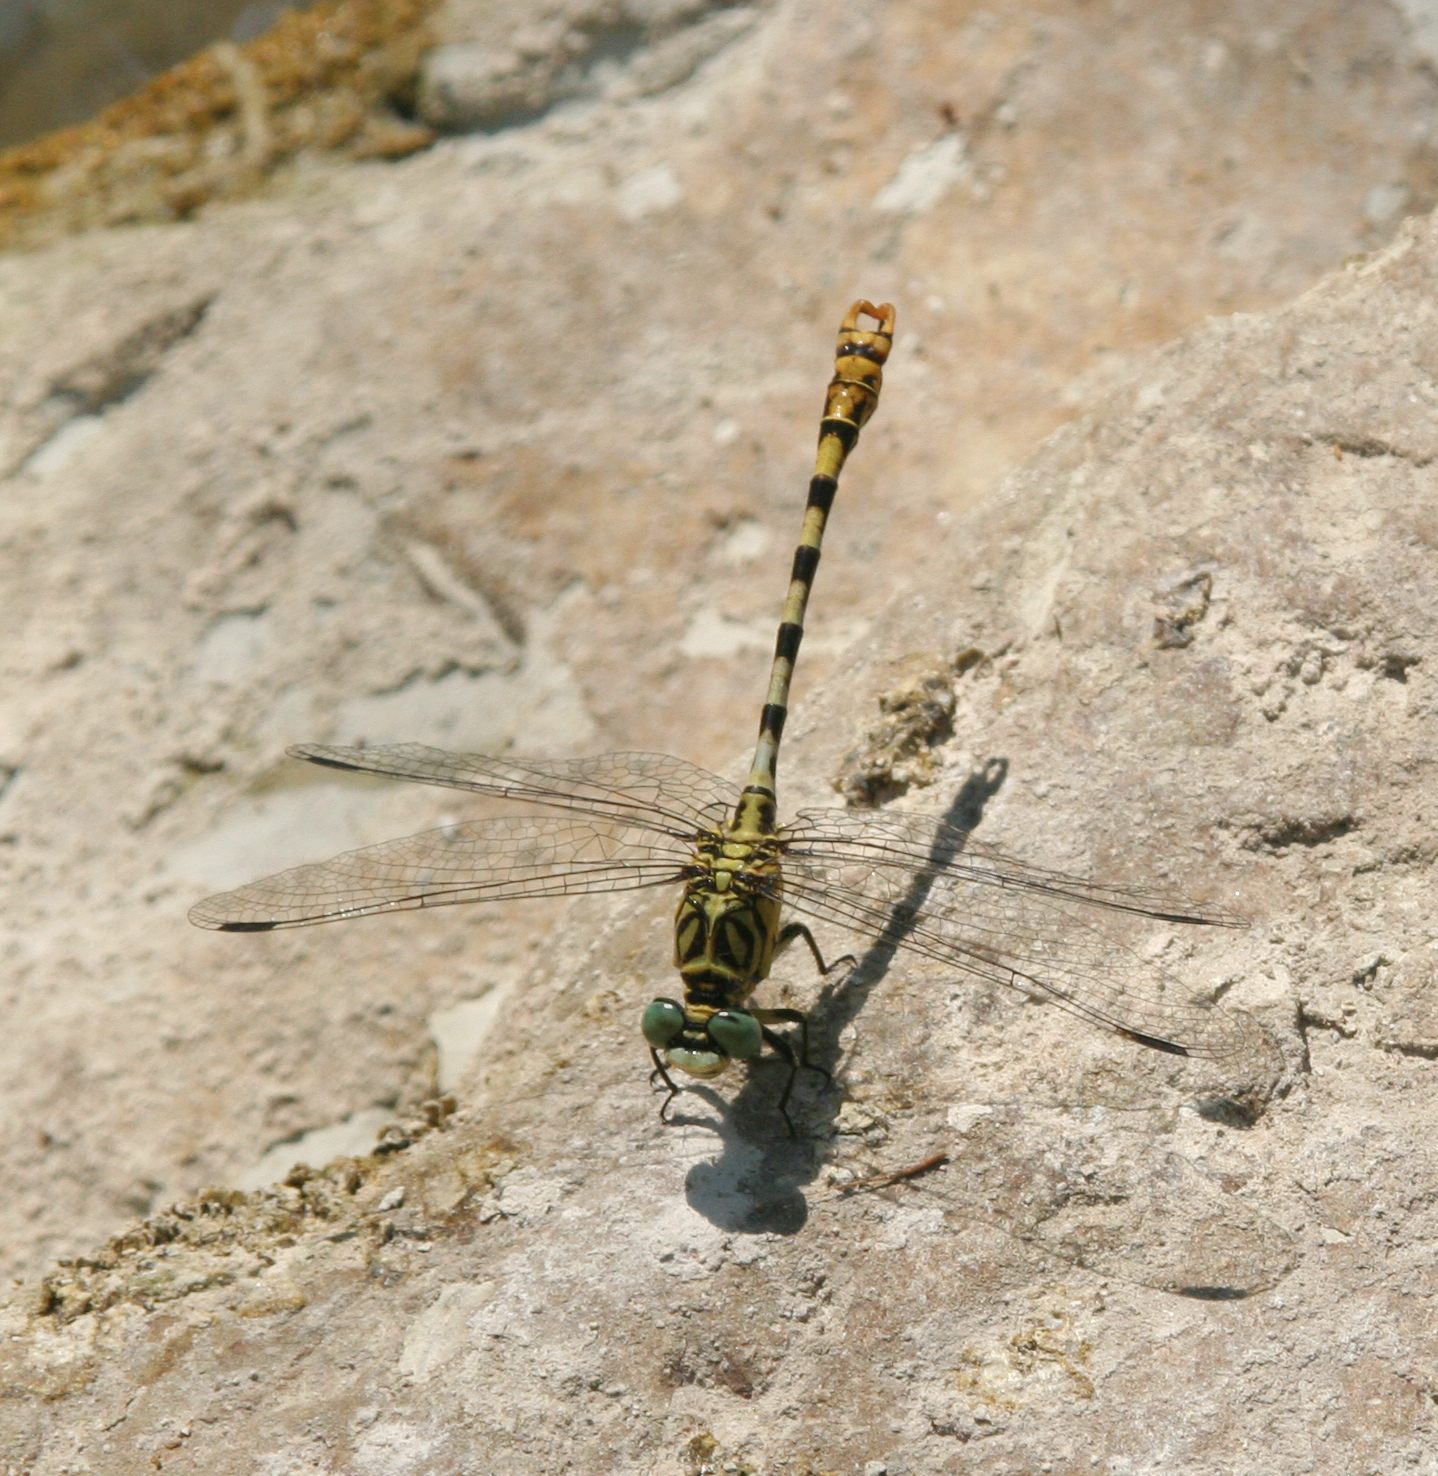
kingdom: Animalia
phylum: Arthropoda
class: Insecta
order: Odonata
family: Gomphidae
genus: Onychogomphus
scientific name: Onychogomphus forcipatus
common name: Small pincertail
